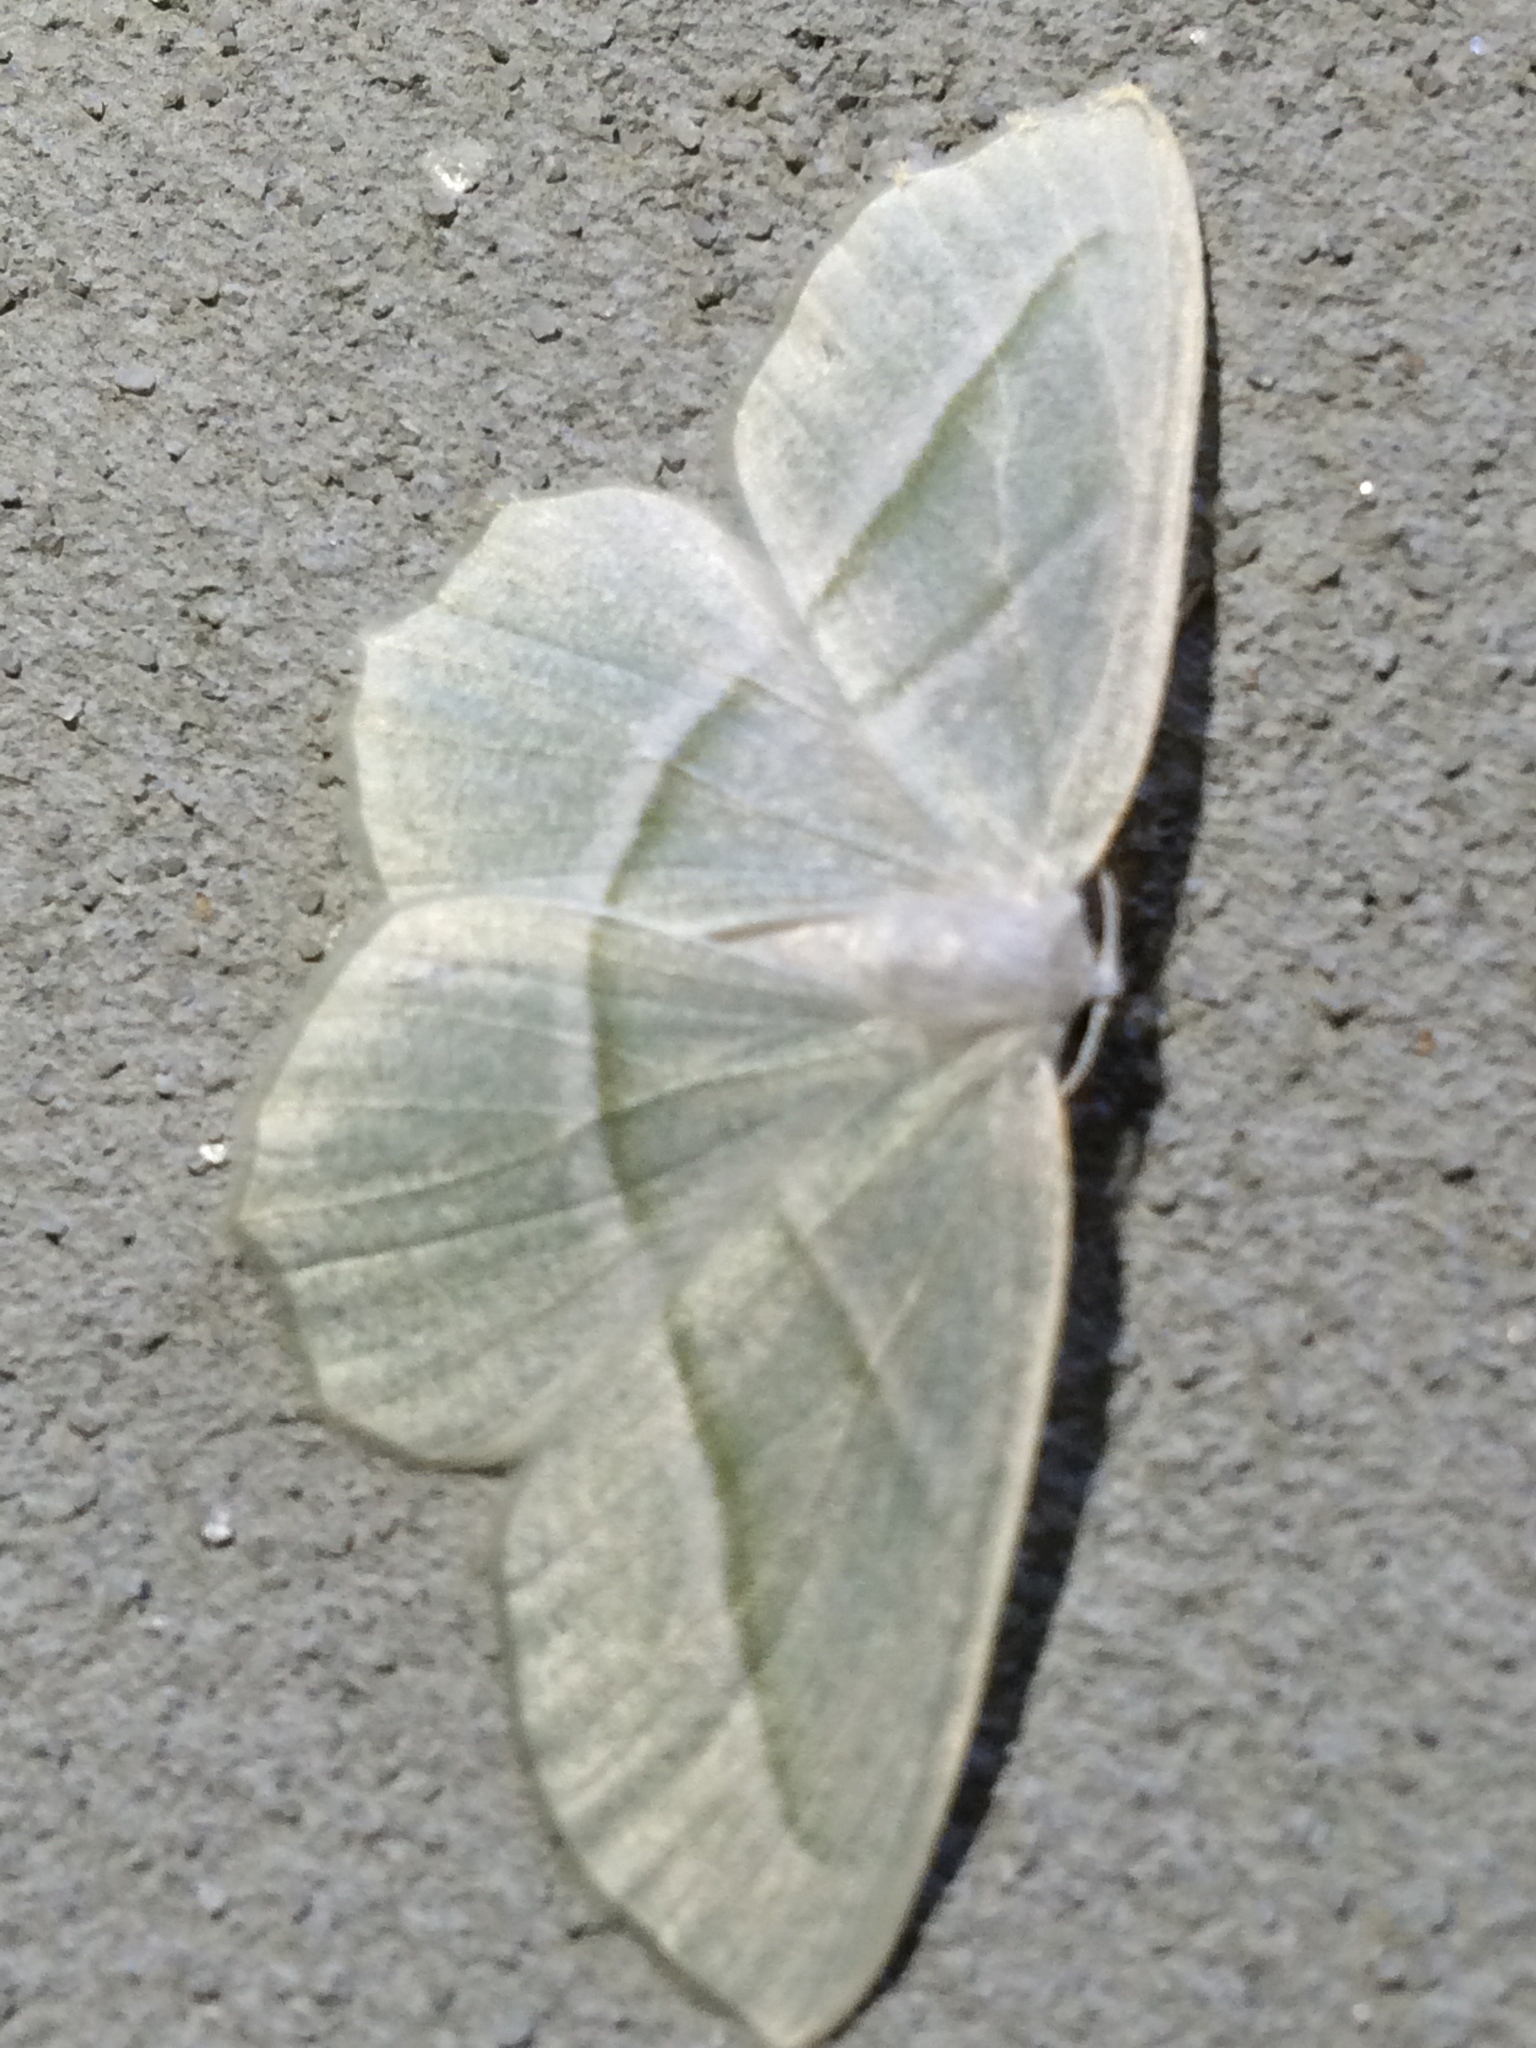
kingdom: Animalia
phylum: Arthropoda
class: Insecta
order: Lepidoptera
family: Geometridae
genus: Campaea
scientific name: Campaea perlata
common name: Fringed looper
